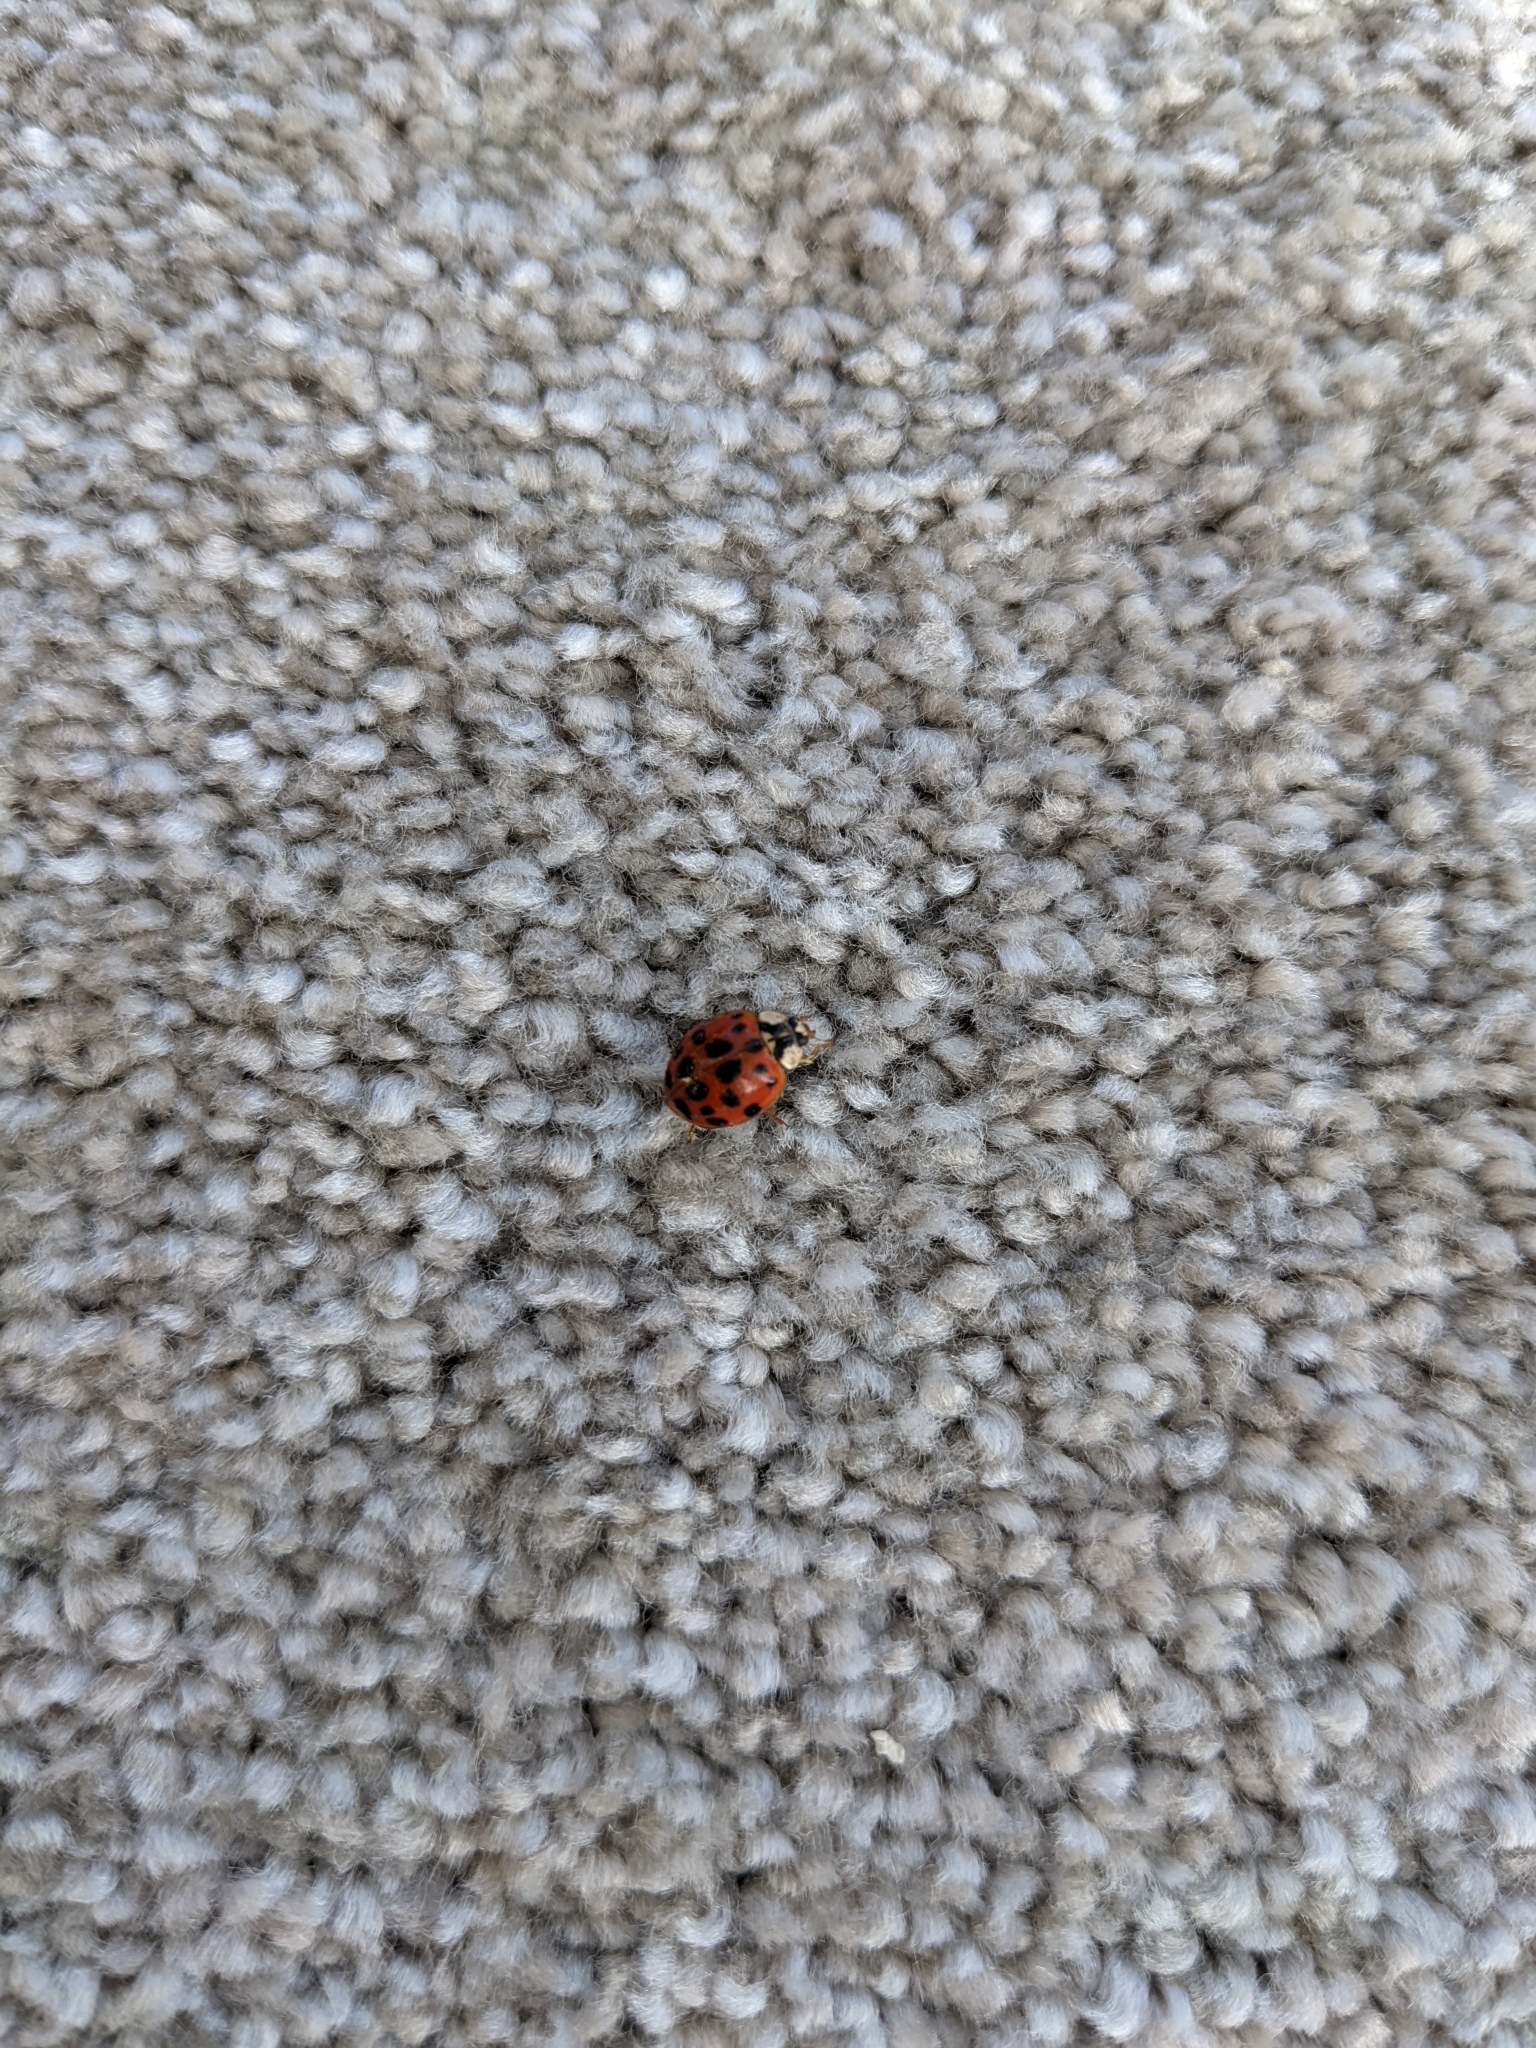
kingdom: Animalia
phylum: Arthropoda
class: Insecta
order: Coleoptera
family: Coccinellidae
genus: Harmonia
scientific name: Harmonia axyridis
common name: Harlequin ladybird
